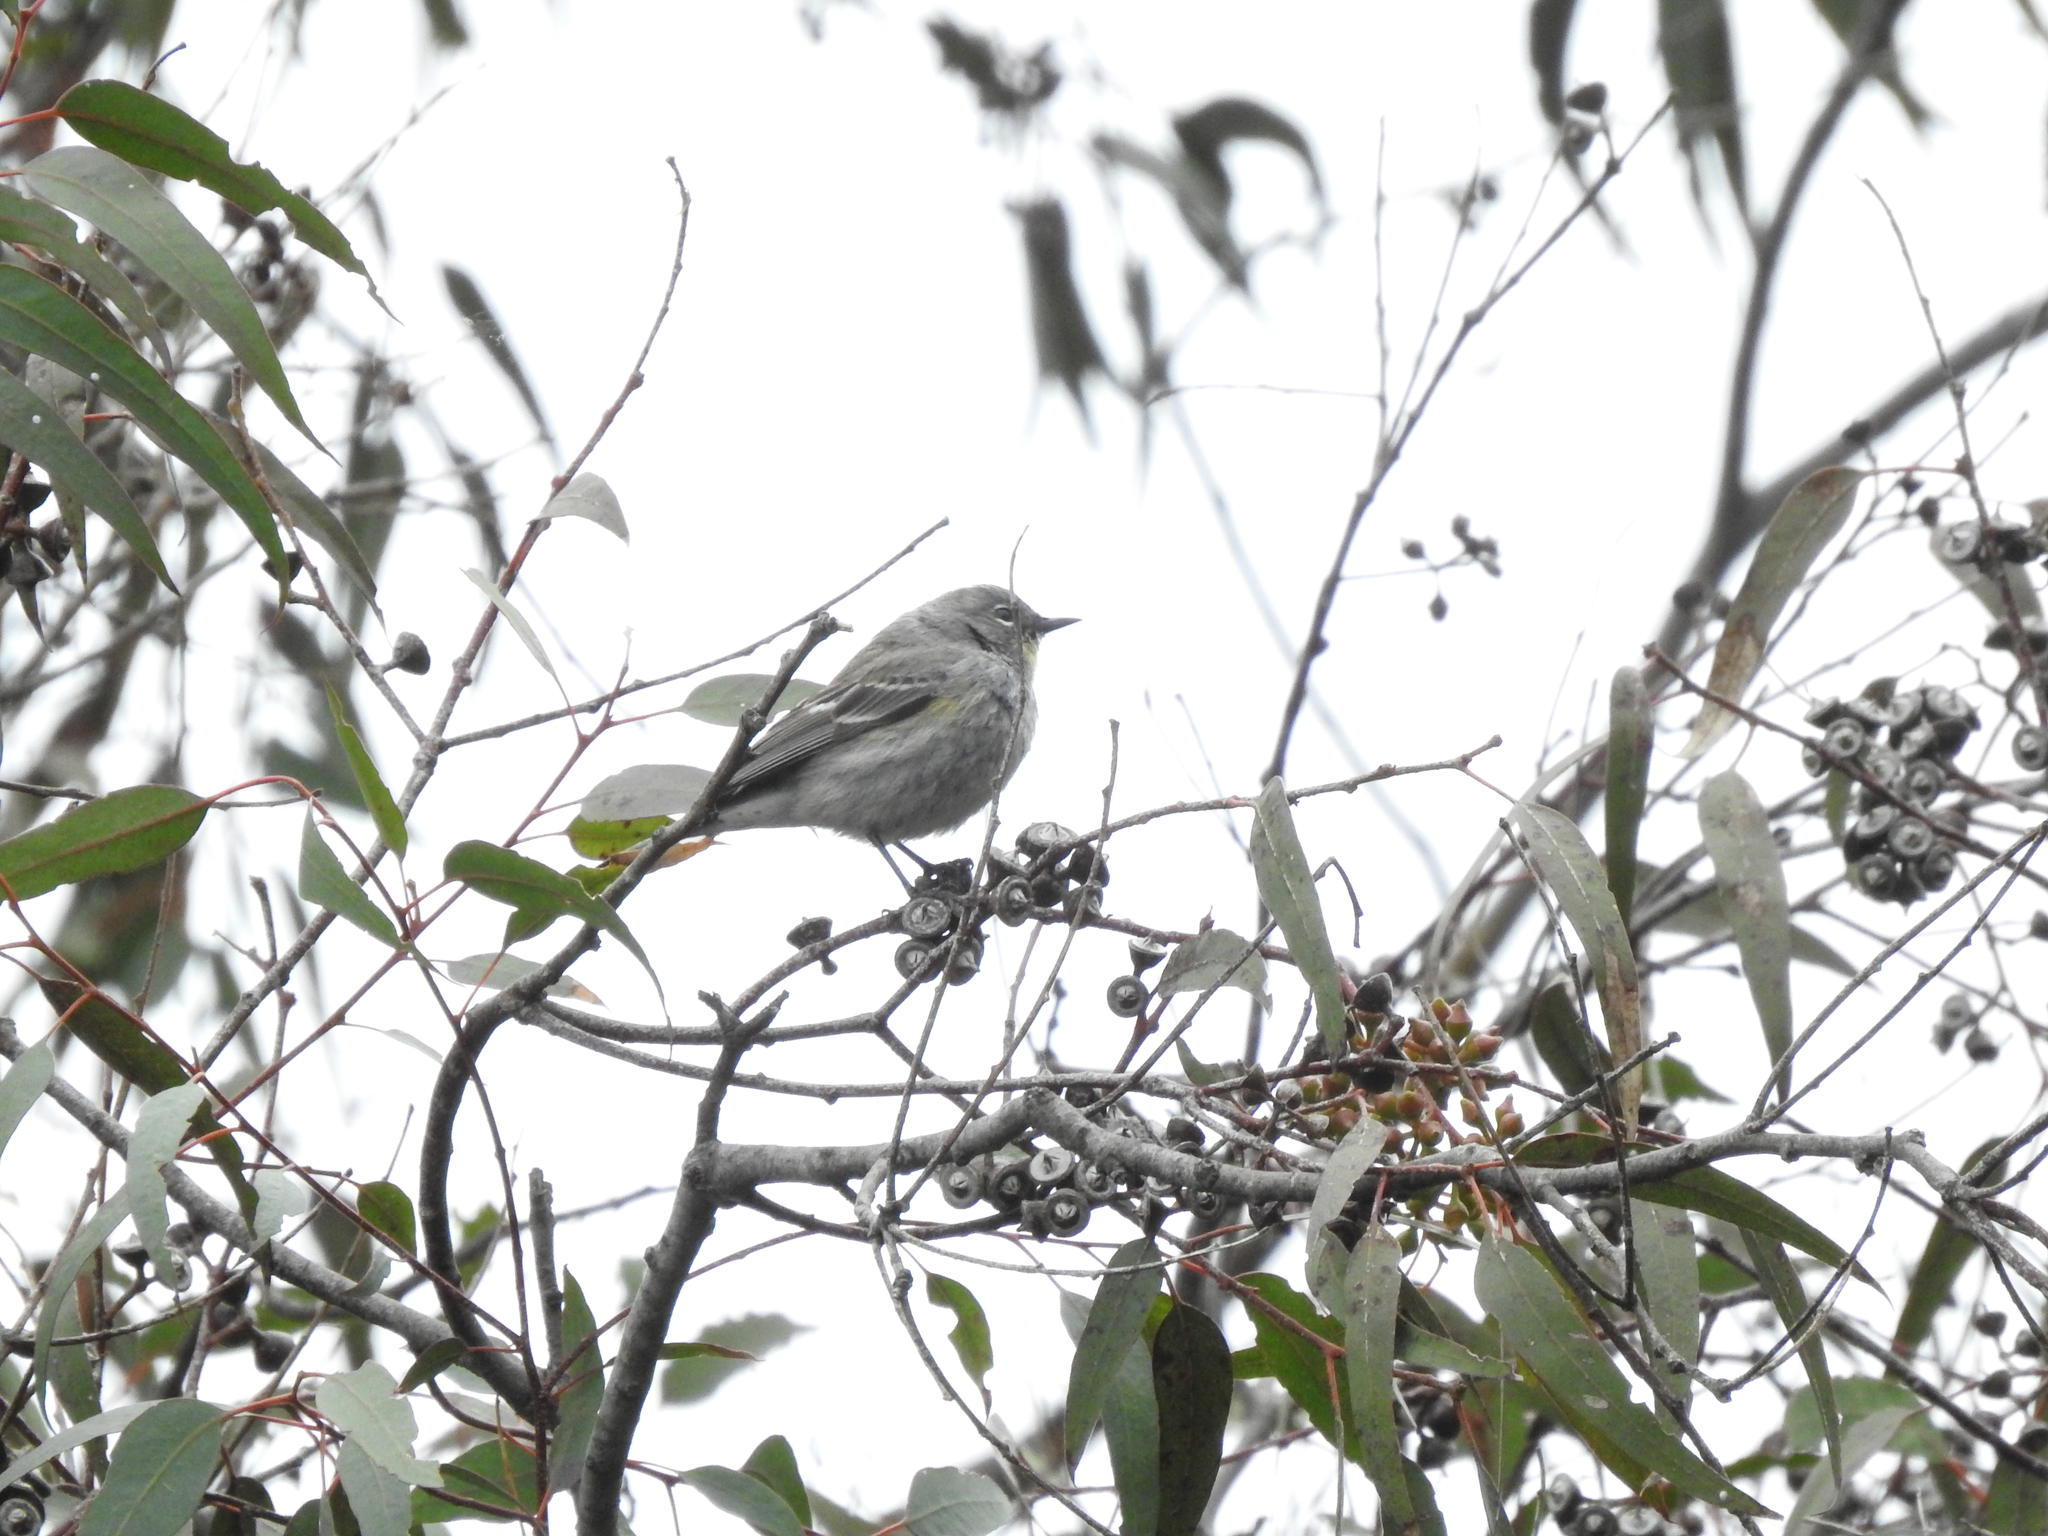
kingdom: Animalia
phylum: Chordata
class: Aves
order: Passeriformes
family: Parulidae
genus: Setophaga
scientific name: Setophaga coronata
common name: Myrtle warbler
